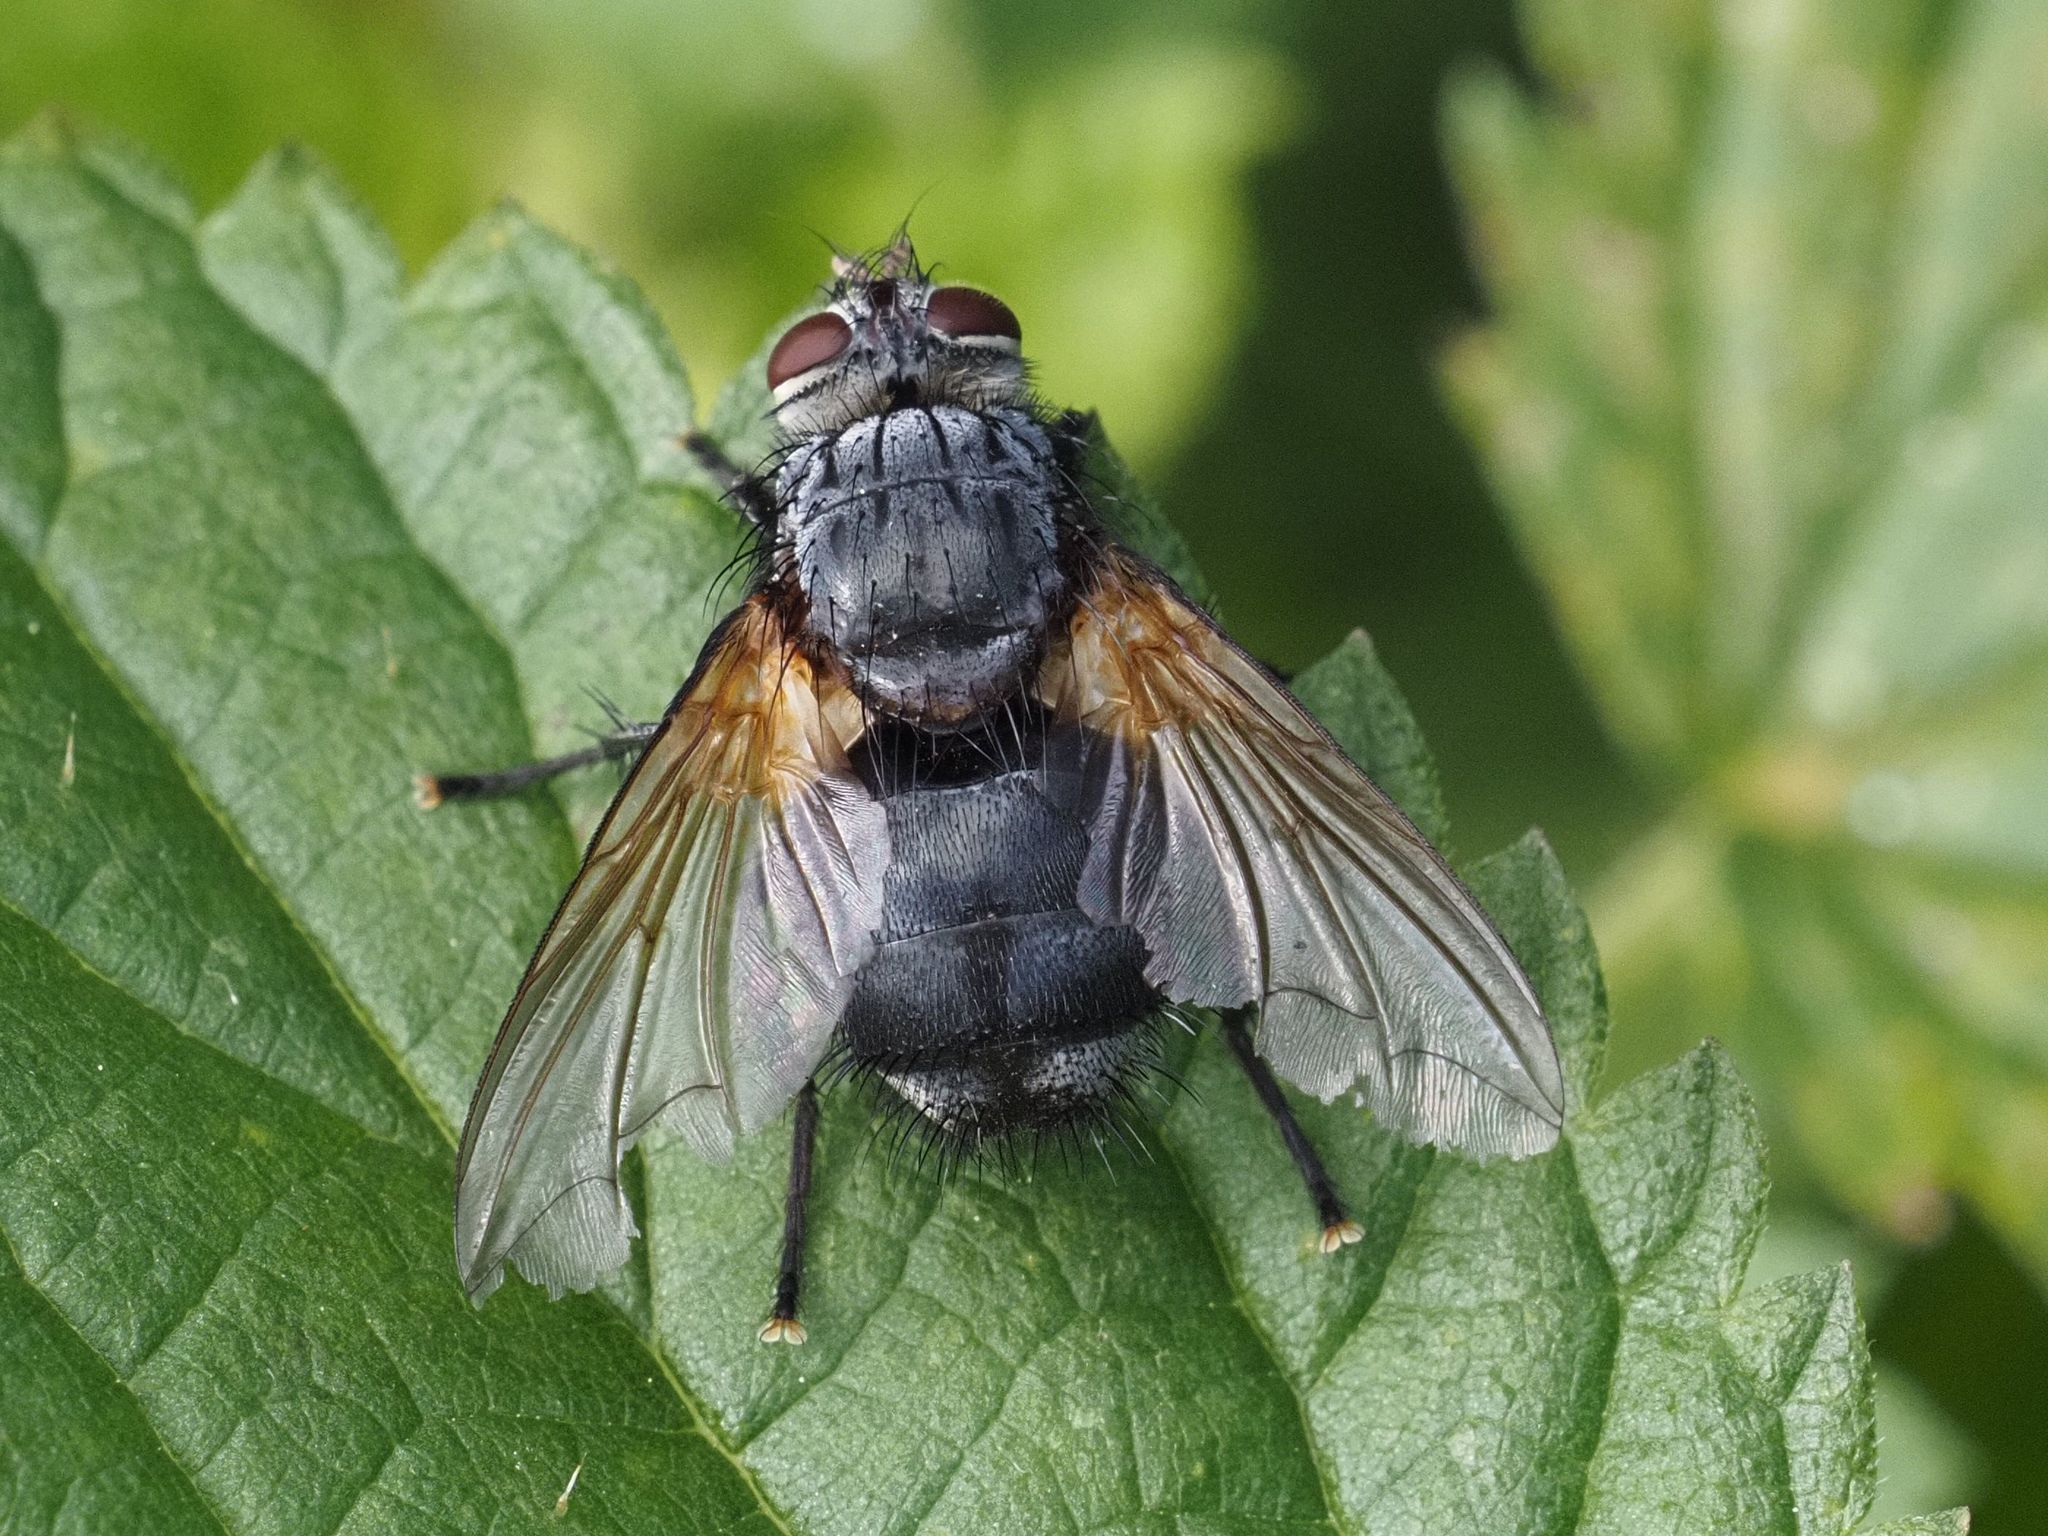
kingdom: Animalia
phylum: Arthropoda
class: Insecta
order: Diptera
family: Tachinidae
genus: Nemoraea
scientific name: Nemoraea pellucida
